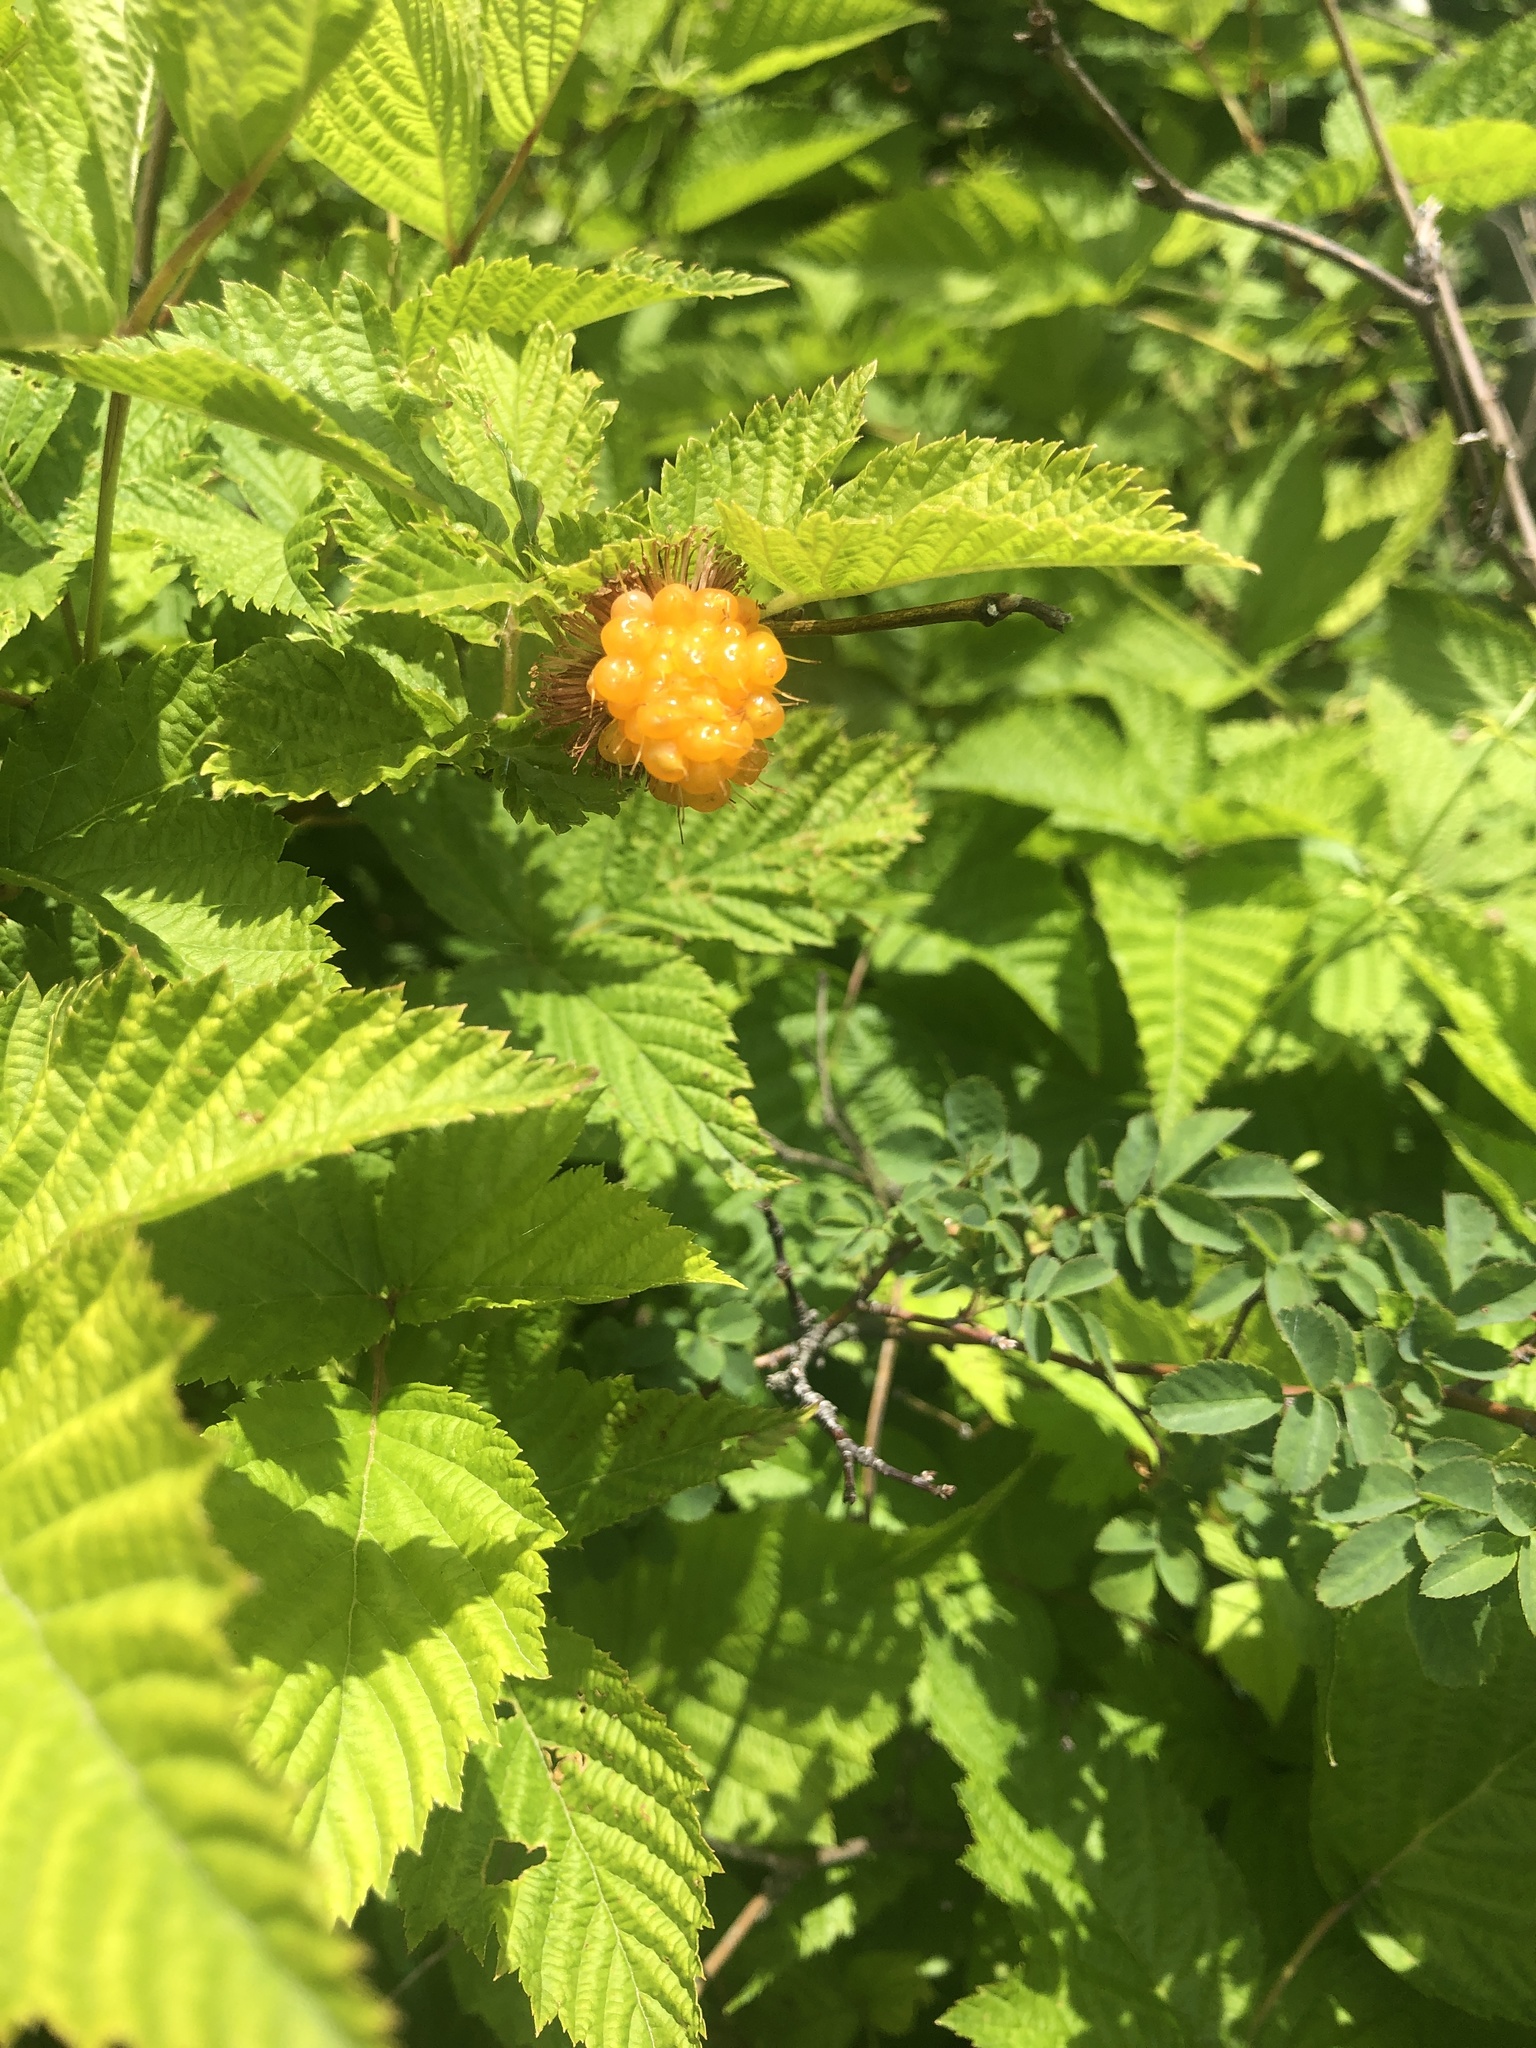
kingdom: Plantae
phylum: Tracheophyta
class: Magnoliopsida
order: Rosales
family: Rosaceae
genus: Rubus
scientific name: Rubus spectabilis
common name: Salmonberry
